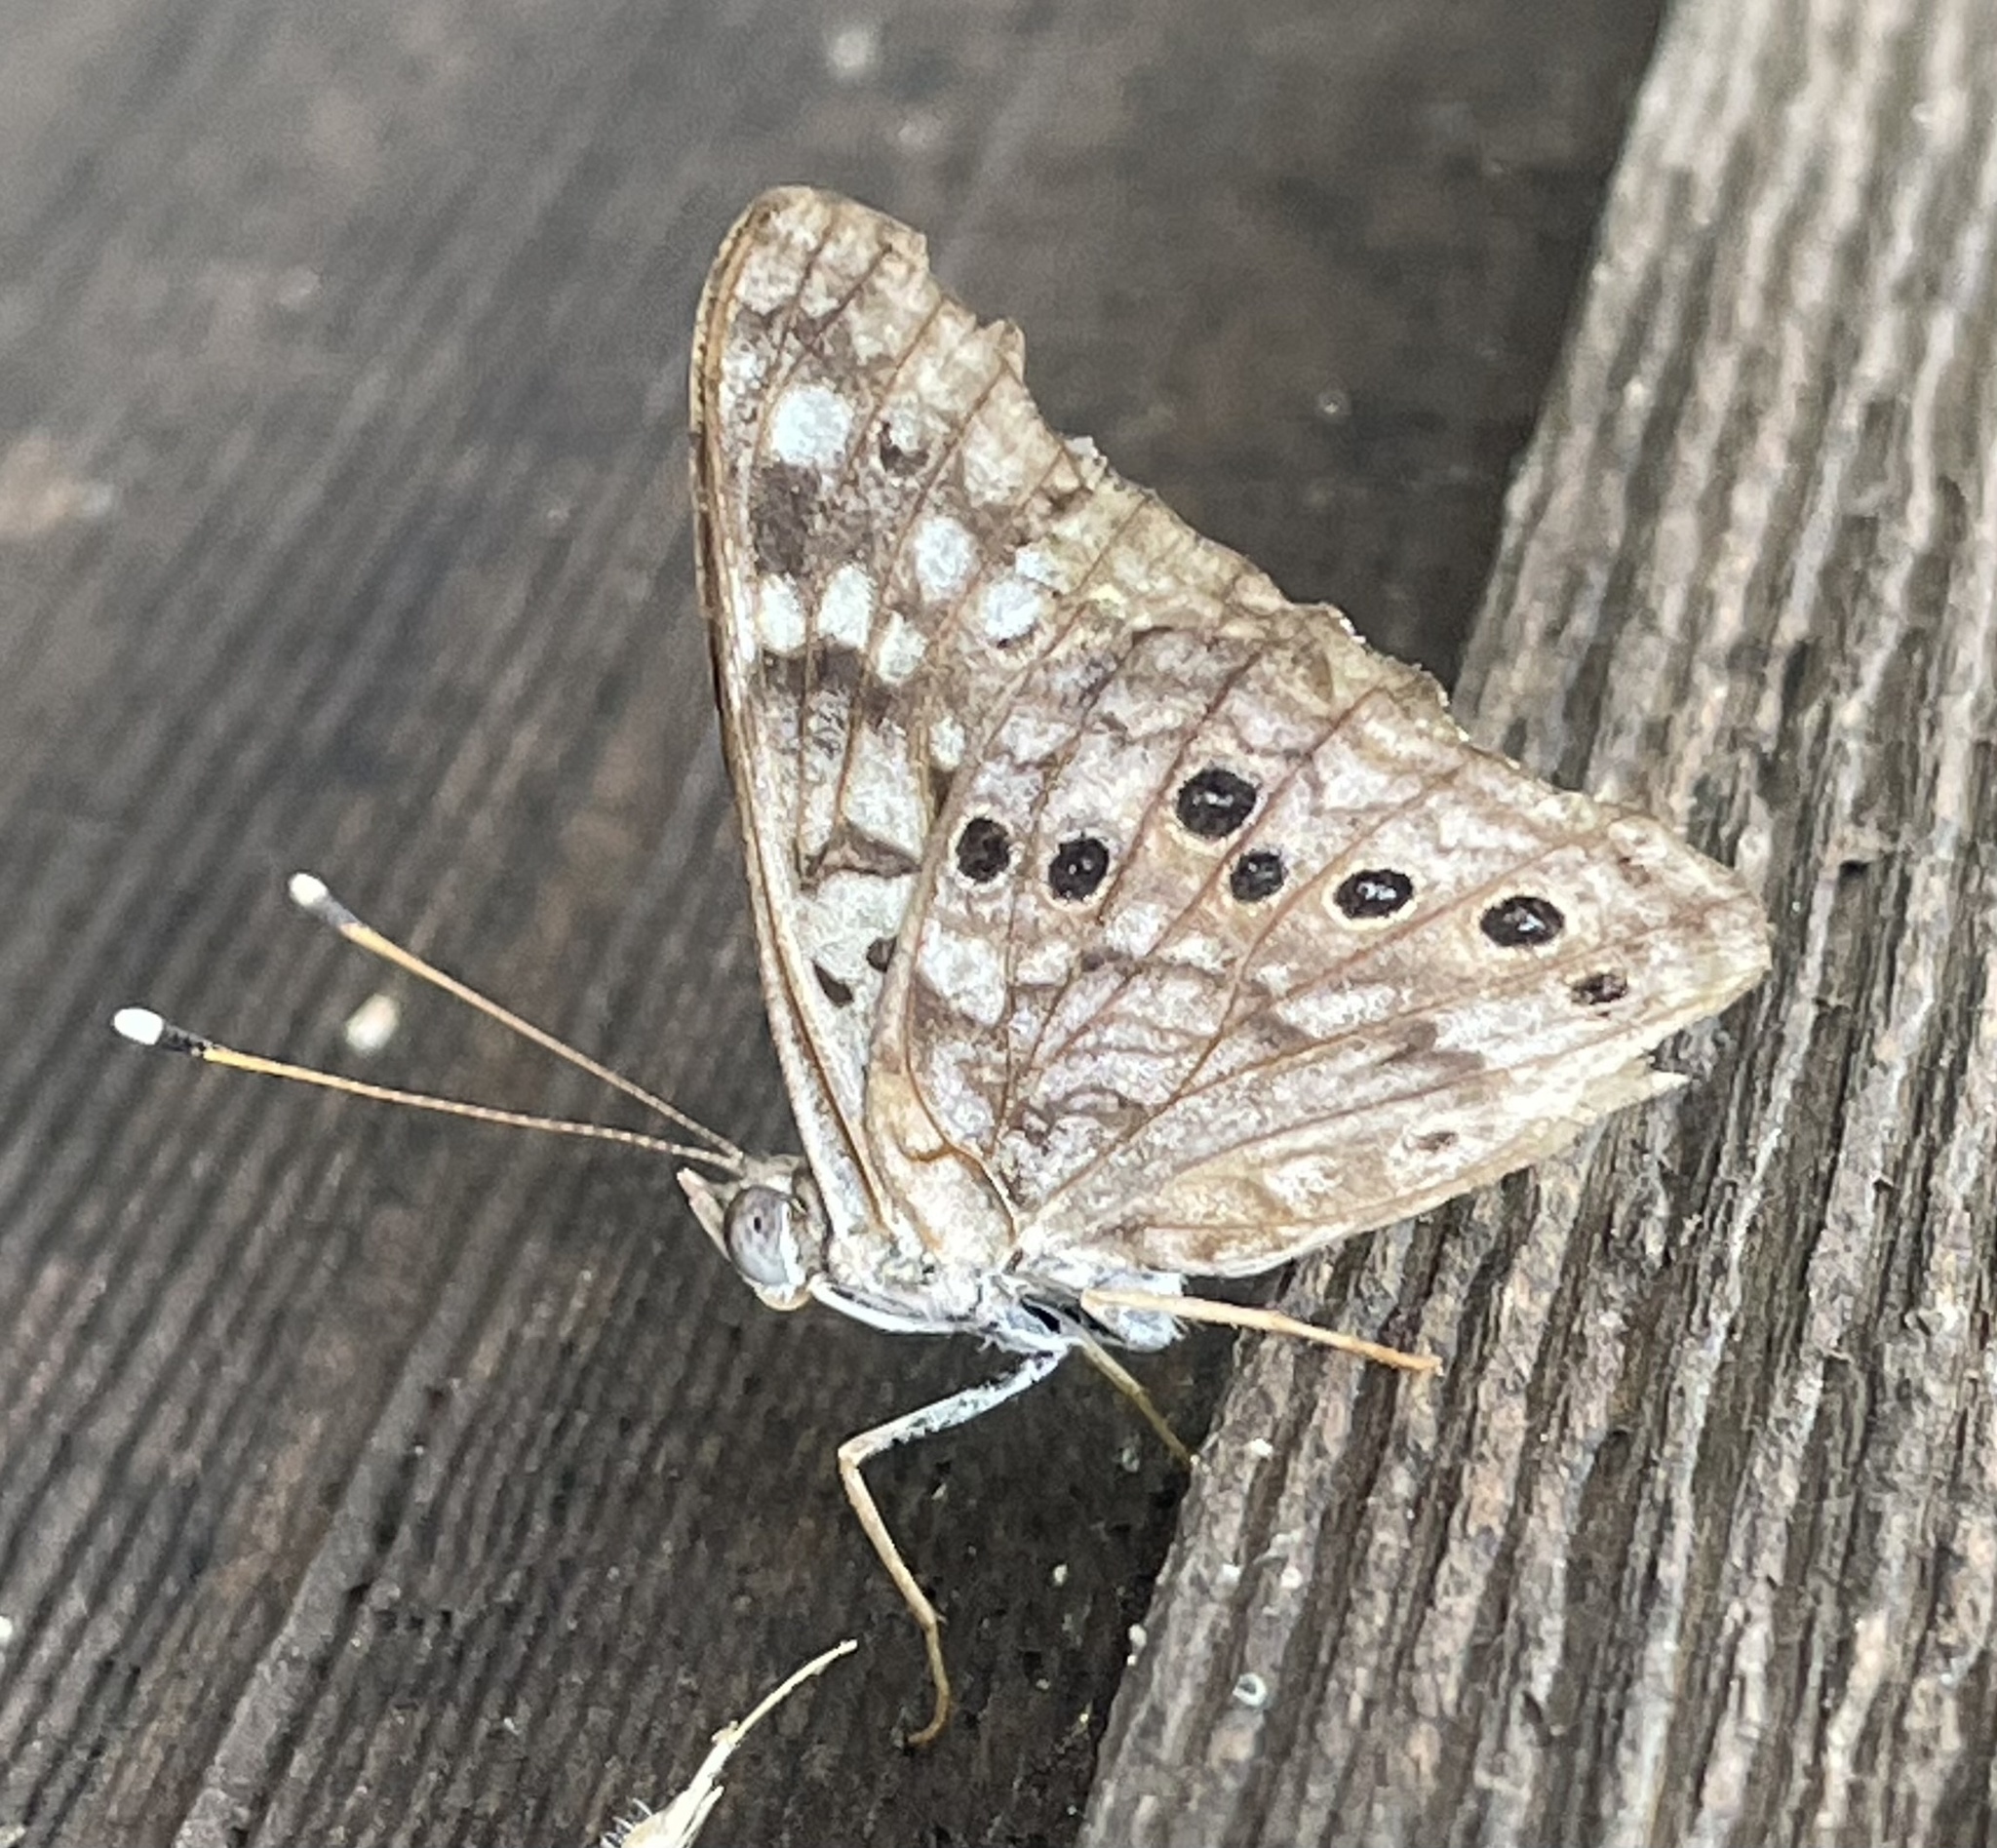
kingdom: Animalia
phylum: Arthropoda
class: Insecta
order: Lepidoptera
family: Nymphalidae
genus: Asterocampa
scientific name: Asterocampa celtis
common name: Hackberry emperor
